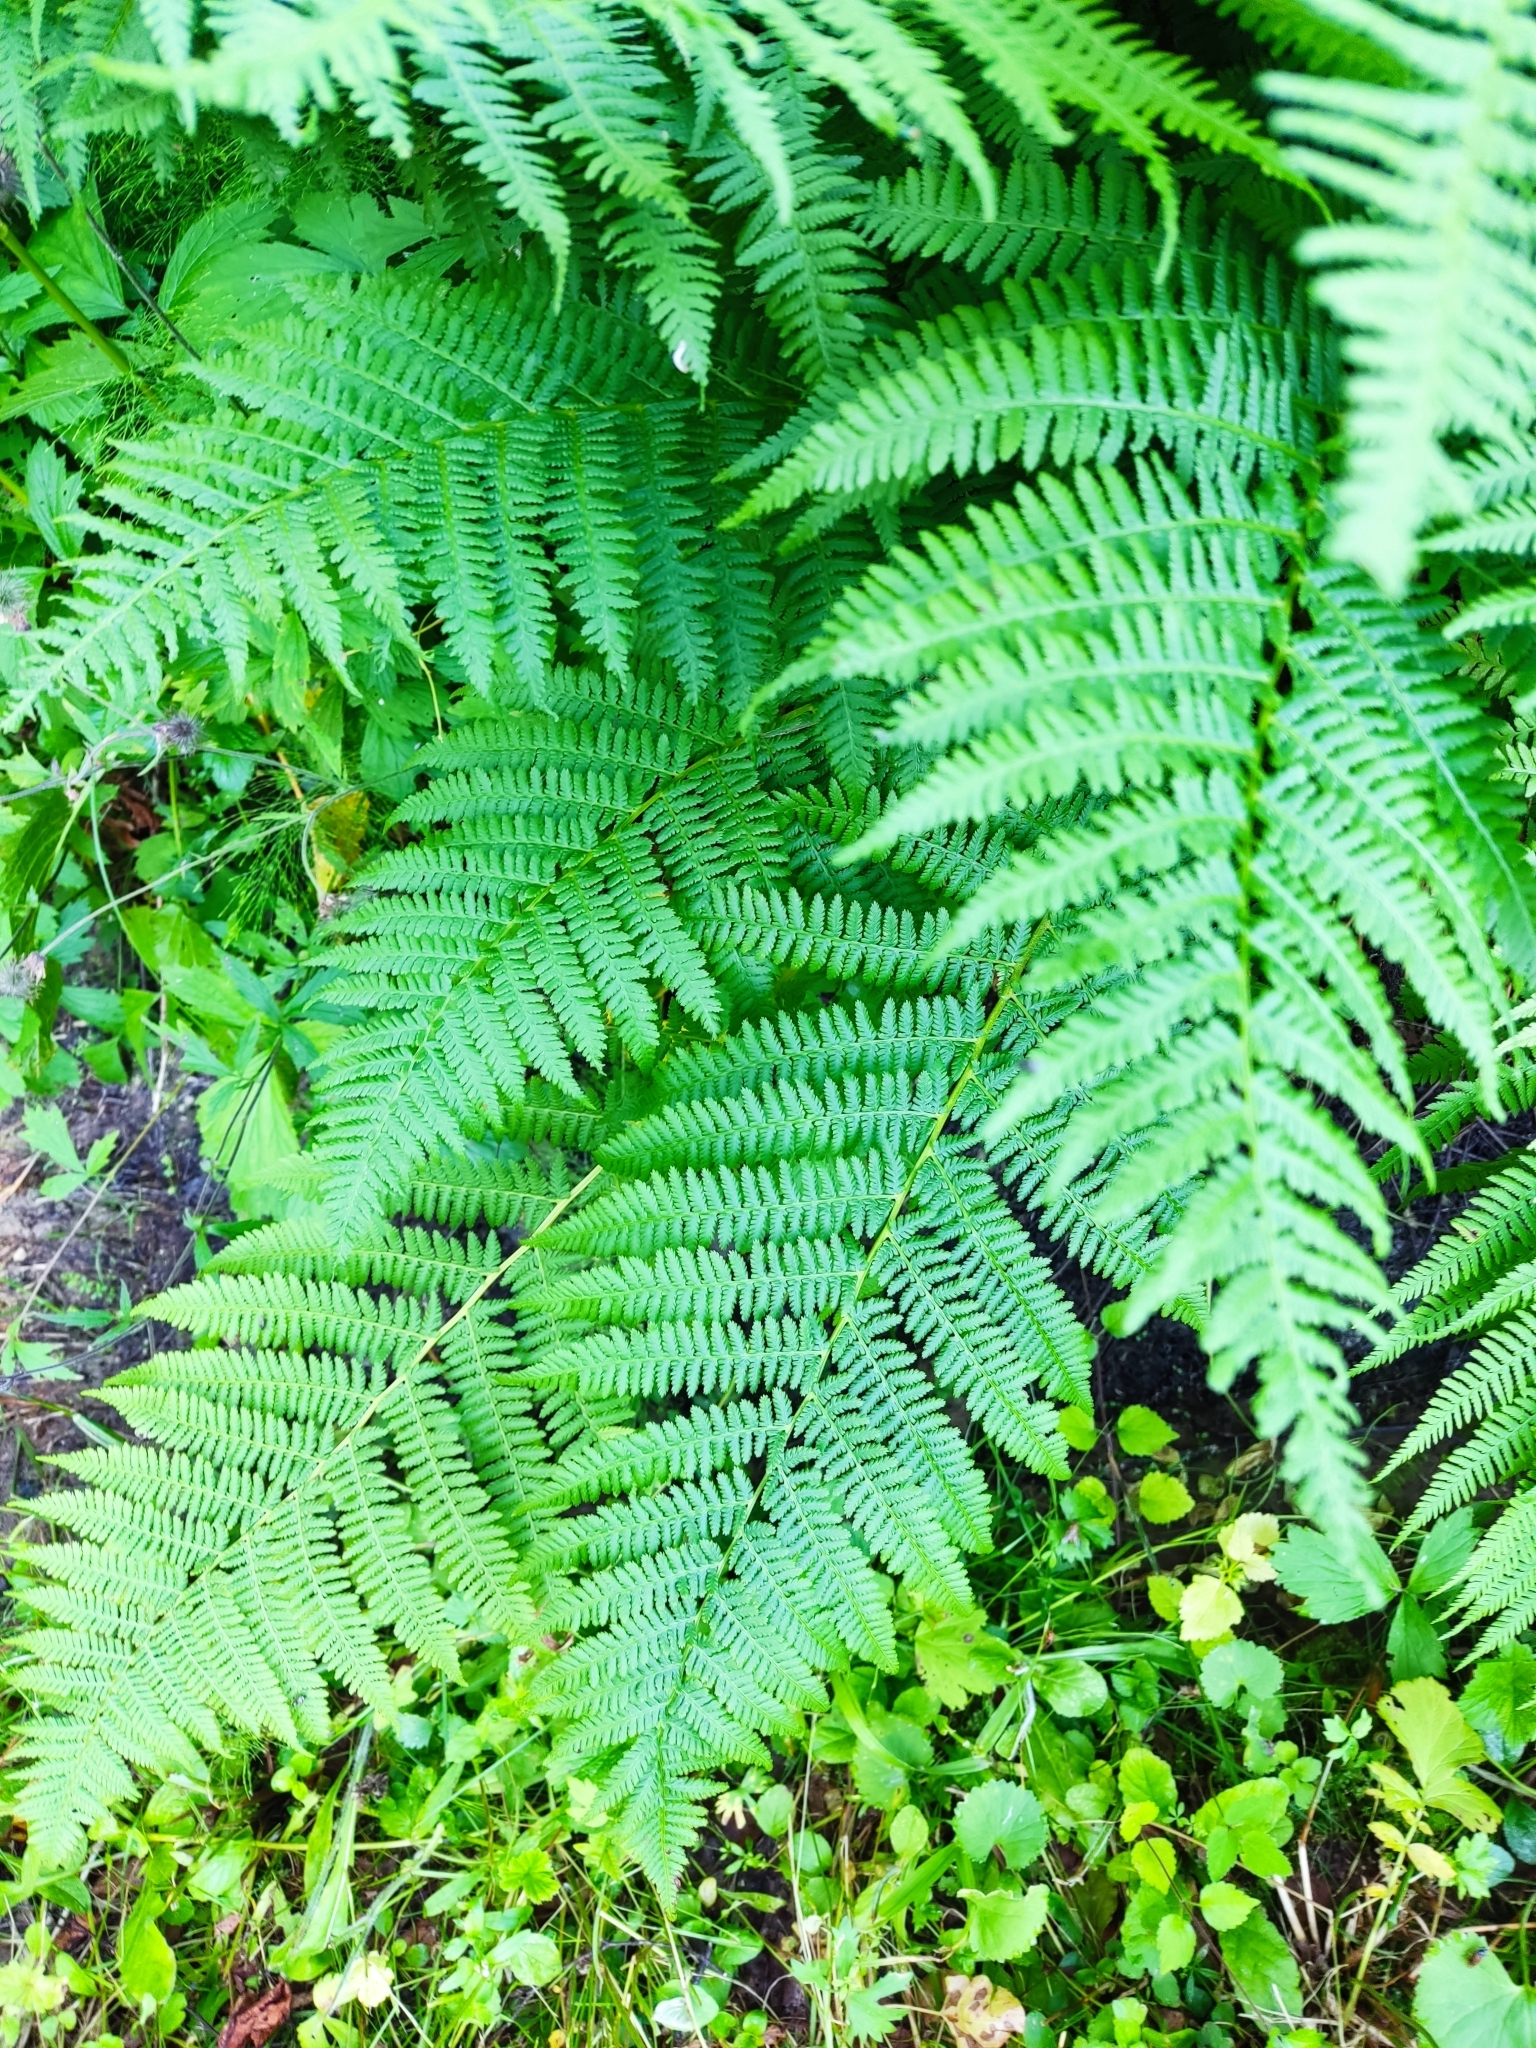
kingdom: Plantae
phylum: Tracheophyta
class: Polypodiopsida
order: Polypodiales
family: Athyriaceae
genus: Athyrium
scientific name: Athyrium filix-femina
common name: Lady fern
